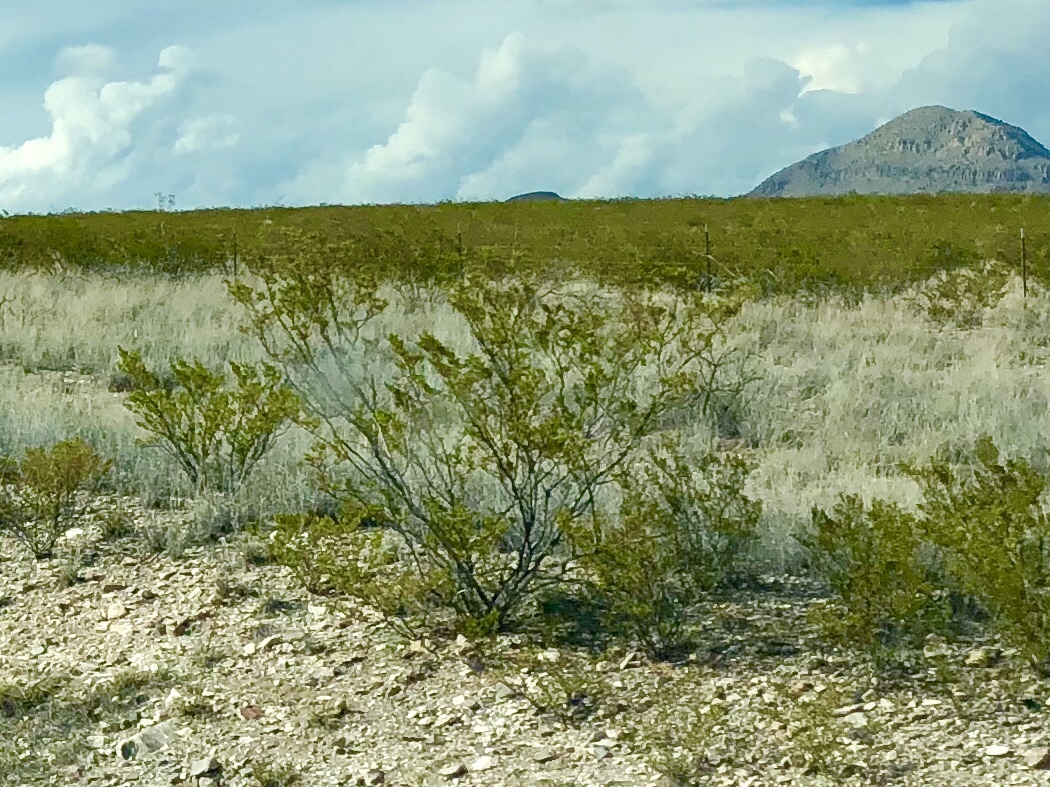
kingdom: Plantae
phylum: Tracheophyta
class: Magnoliopsida
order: Zygophyllales
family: Zygophyllaceae
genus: Larrea
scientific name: Larrea tridentata
